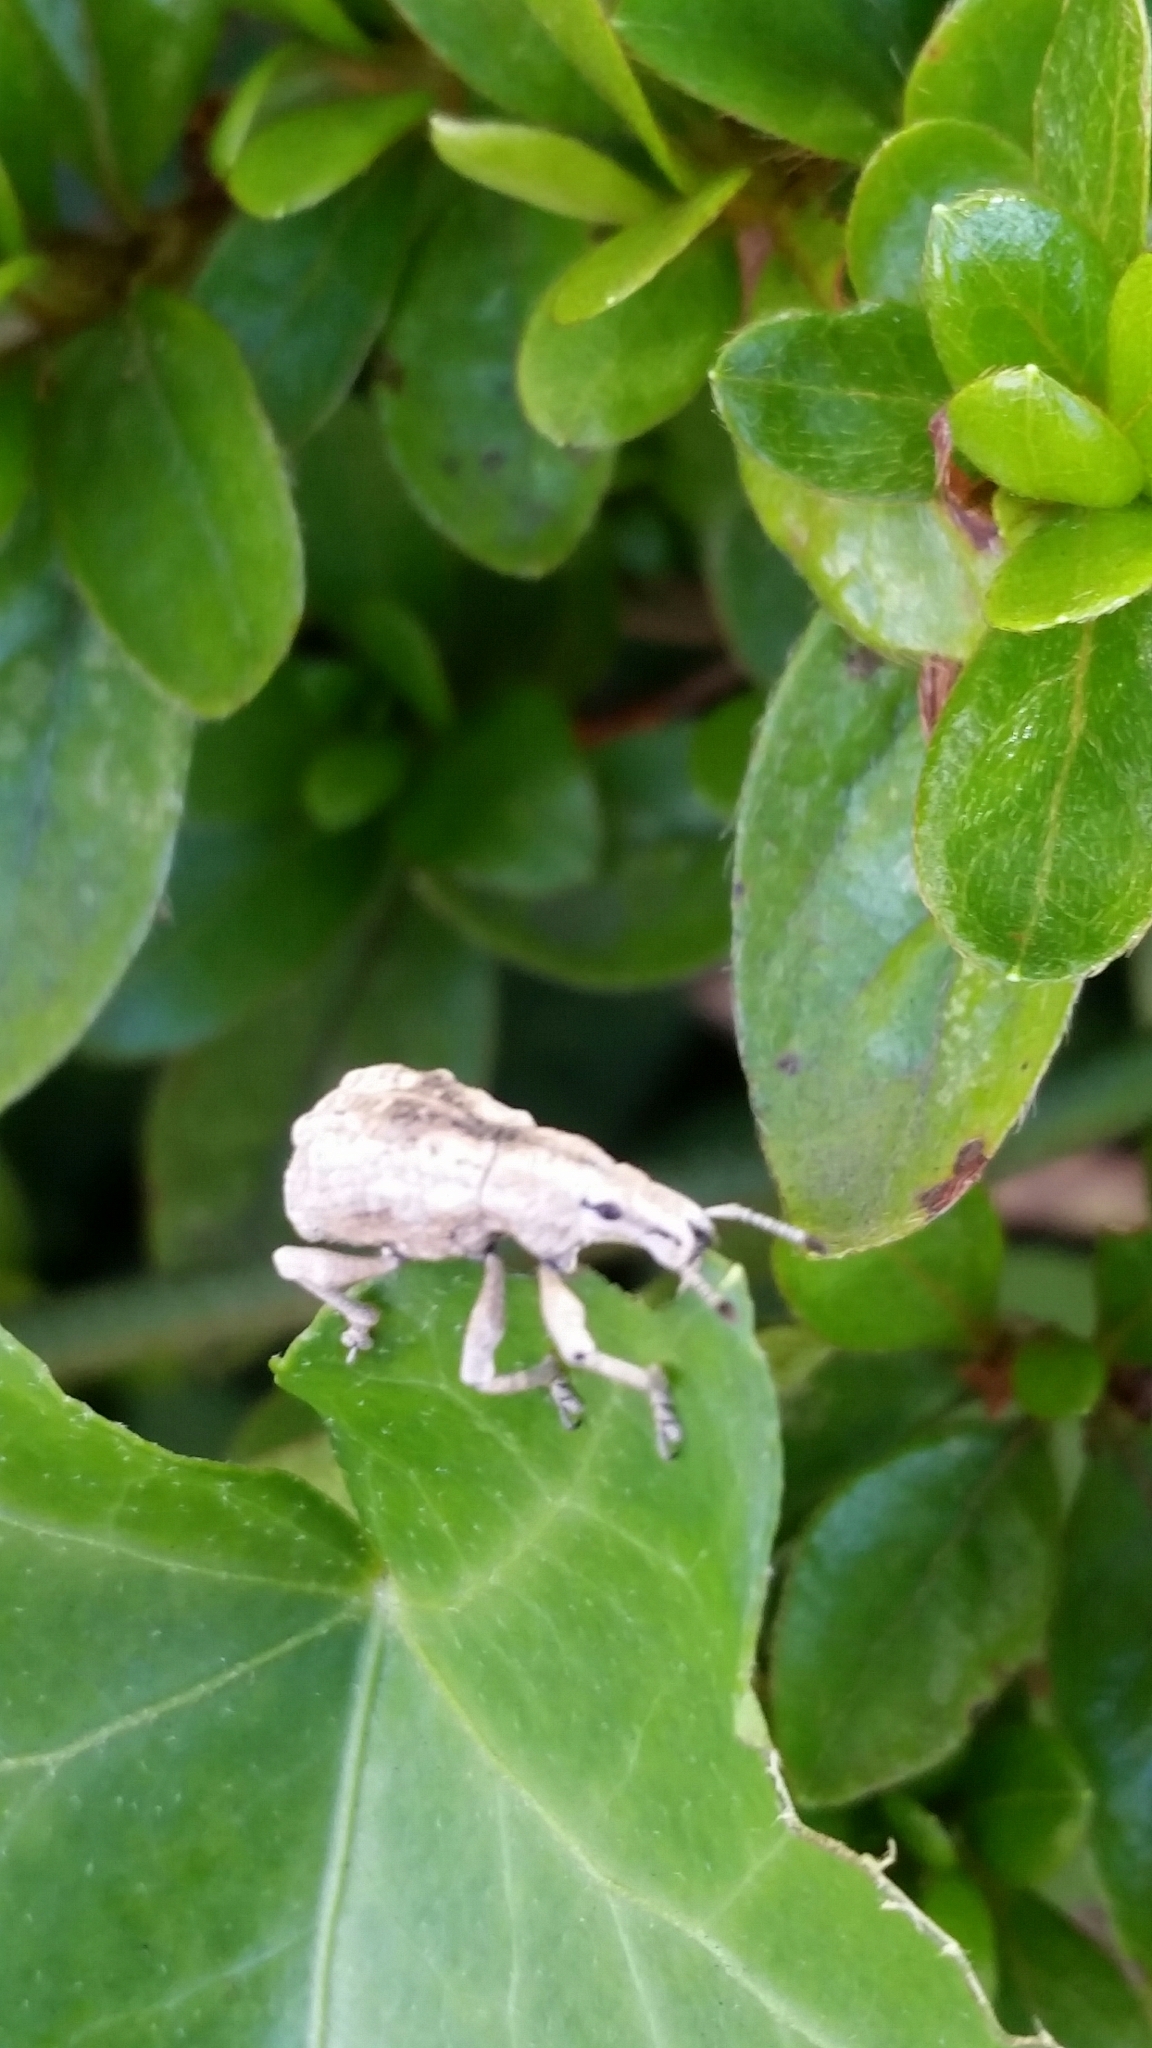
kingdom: Animalia
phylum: Arthropoda
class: Insecta
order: Coleoptera
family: Curculionidae
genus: Dermatoxenus
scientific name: Dermatoxenus caesicollis
